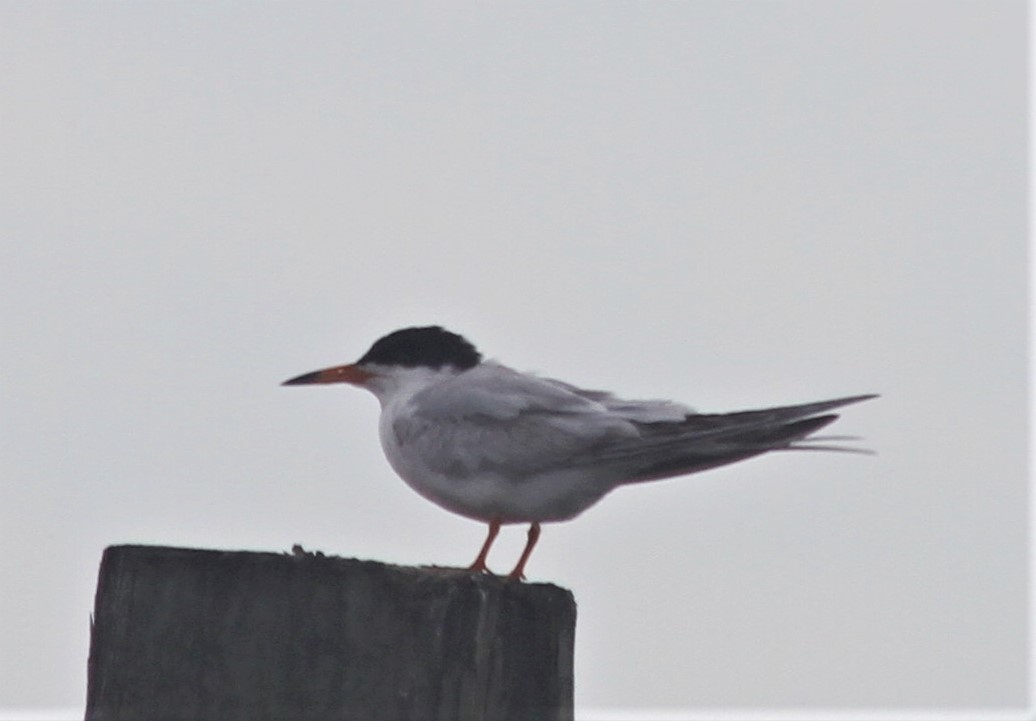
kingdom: Animalia
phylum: Chordata
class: Aves
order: Charadriiformes
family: Laridae
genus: Sterna
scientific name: Sterna forsteri
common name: Forster's tern
